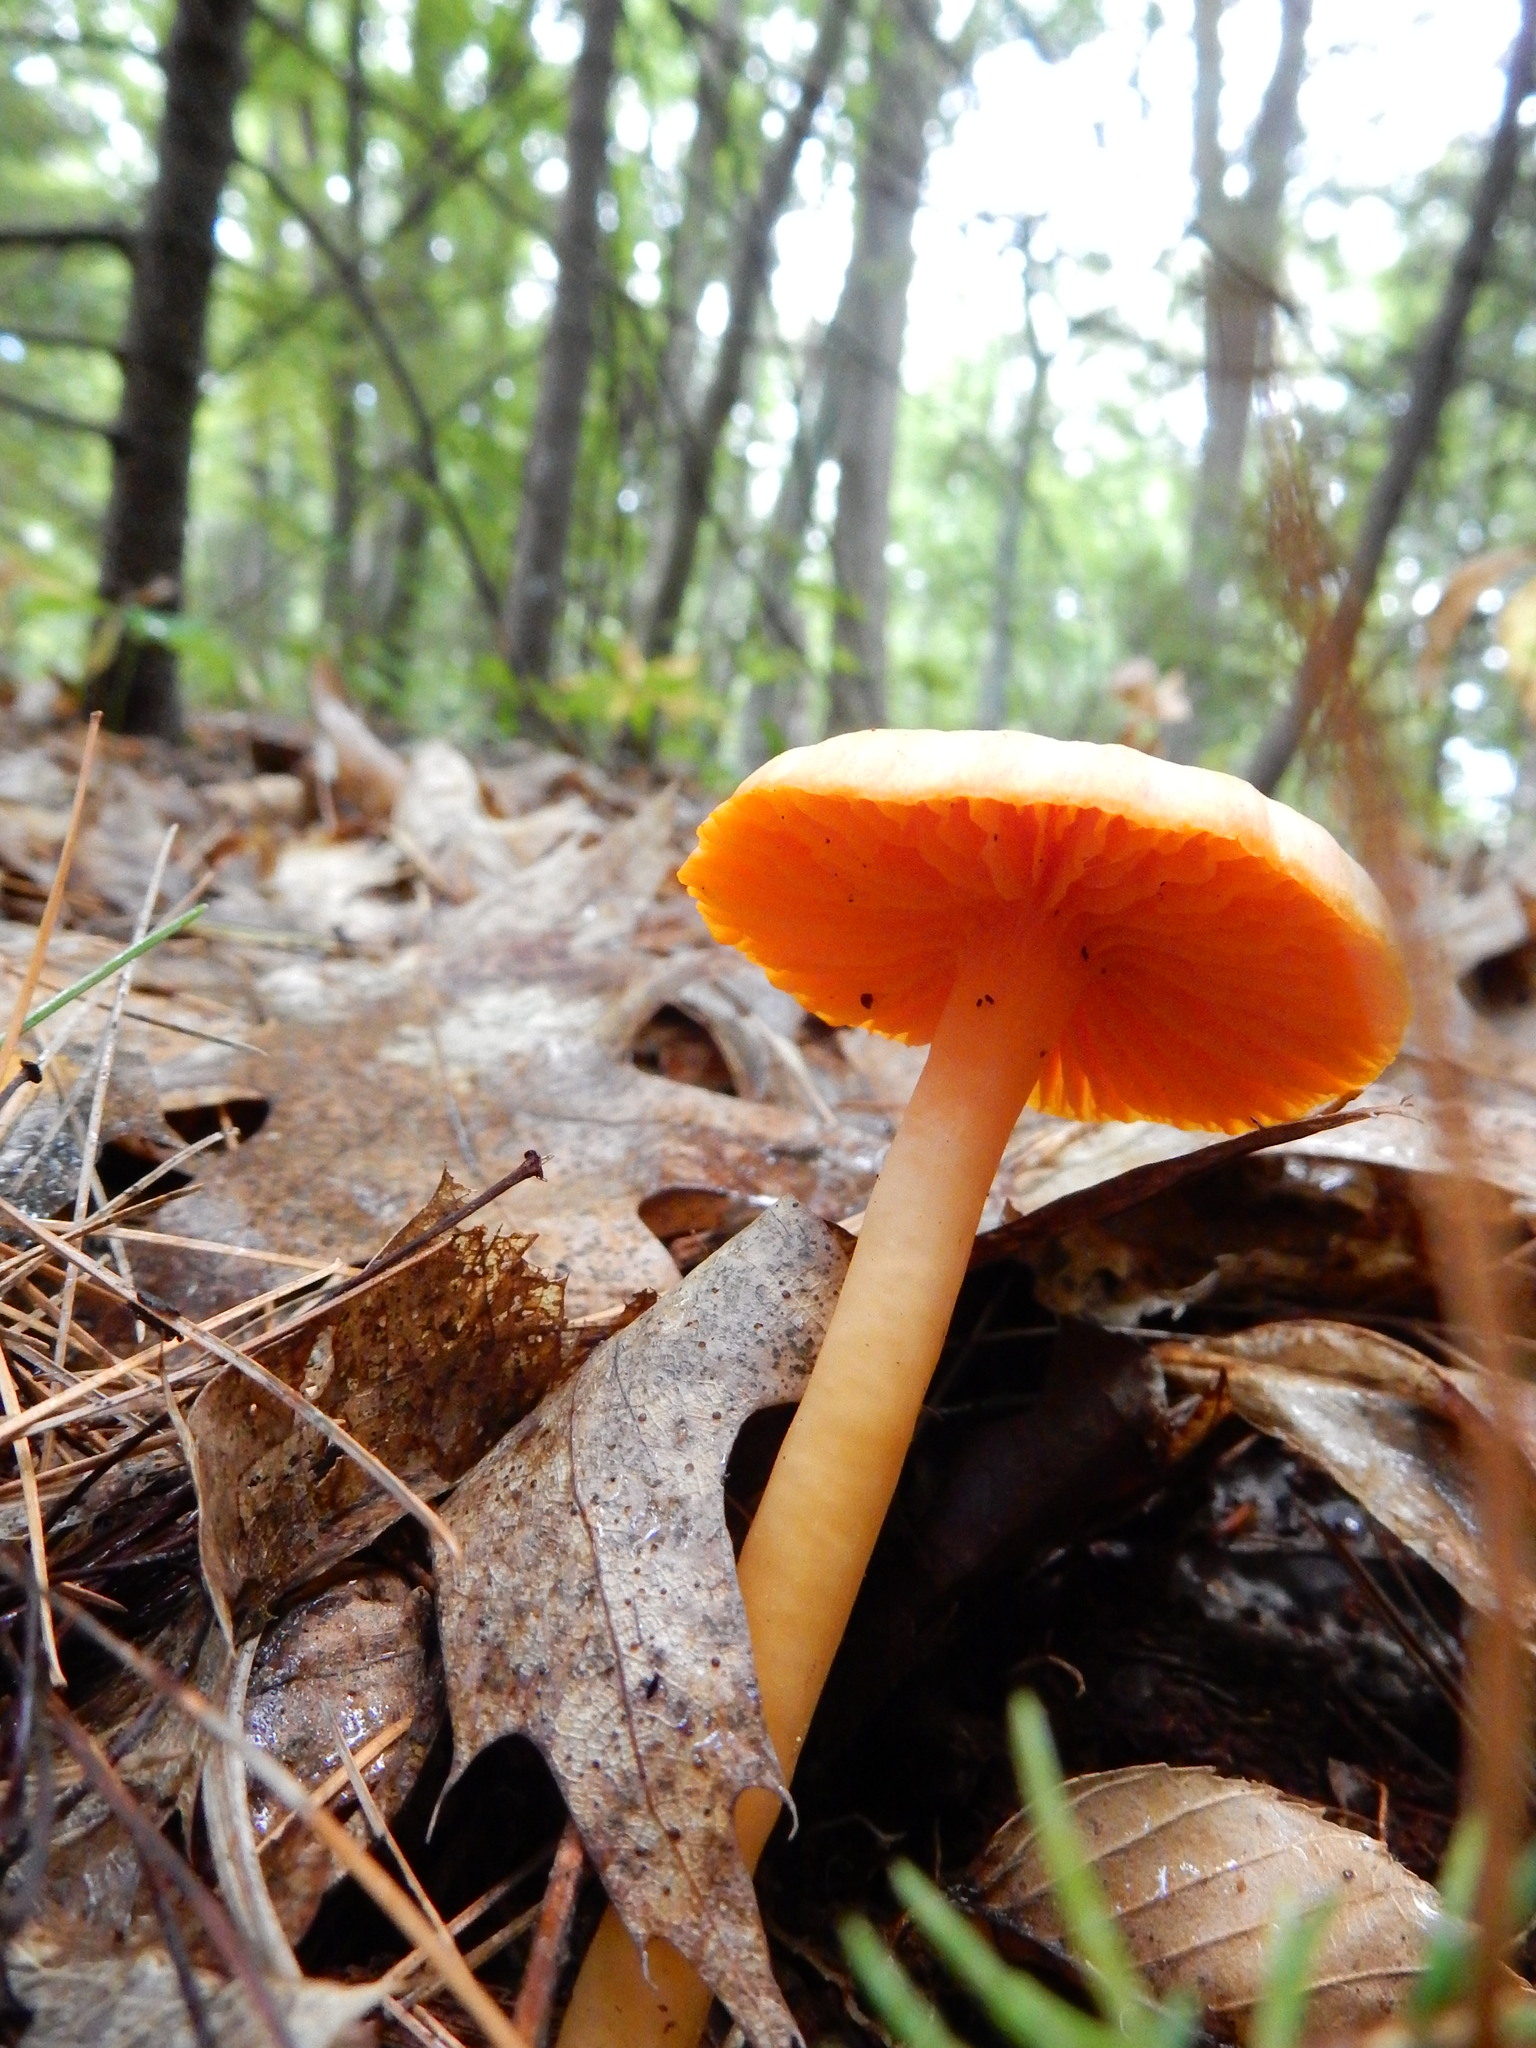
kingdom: Fungi
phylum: Basidiomycota
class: Agaricomycetes
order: Agaricales
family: Hygrophoraceae
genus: Humidicutis
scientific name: Humidicutis marginata
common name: Orange gilled waxcap
